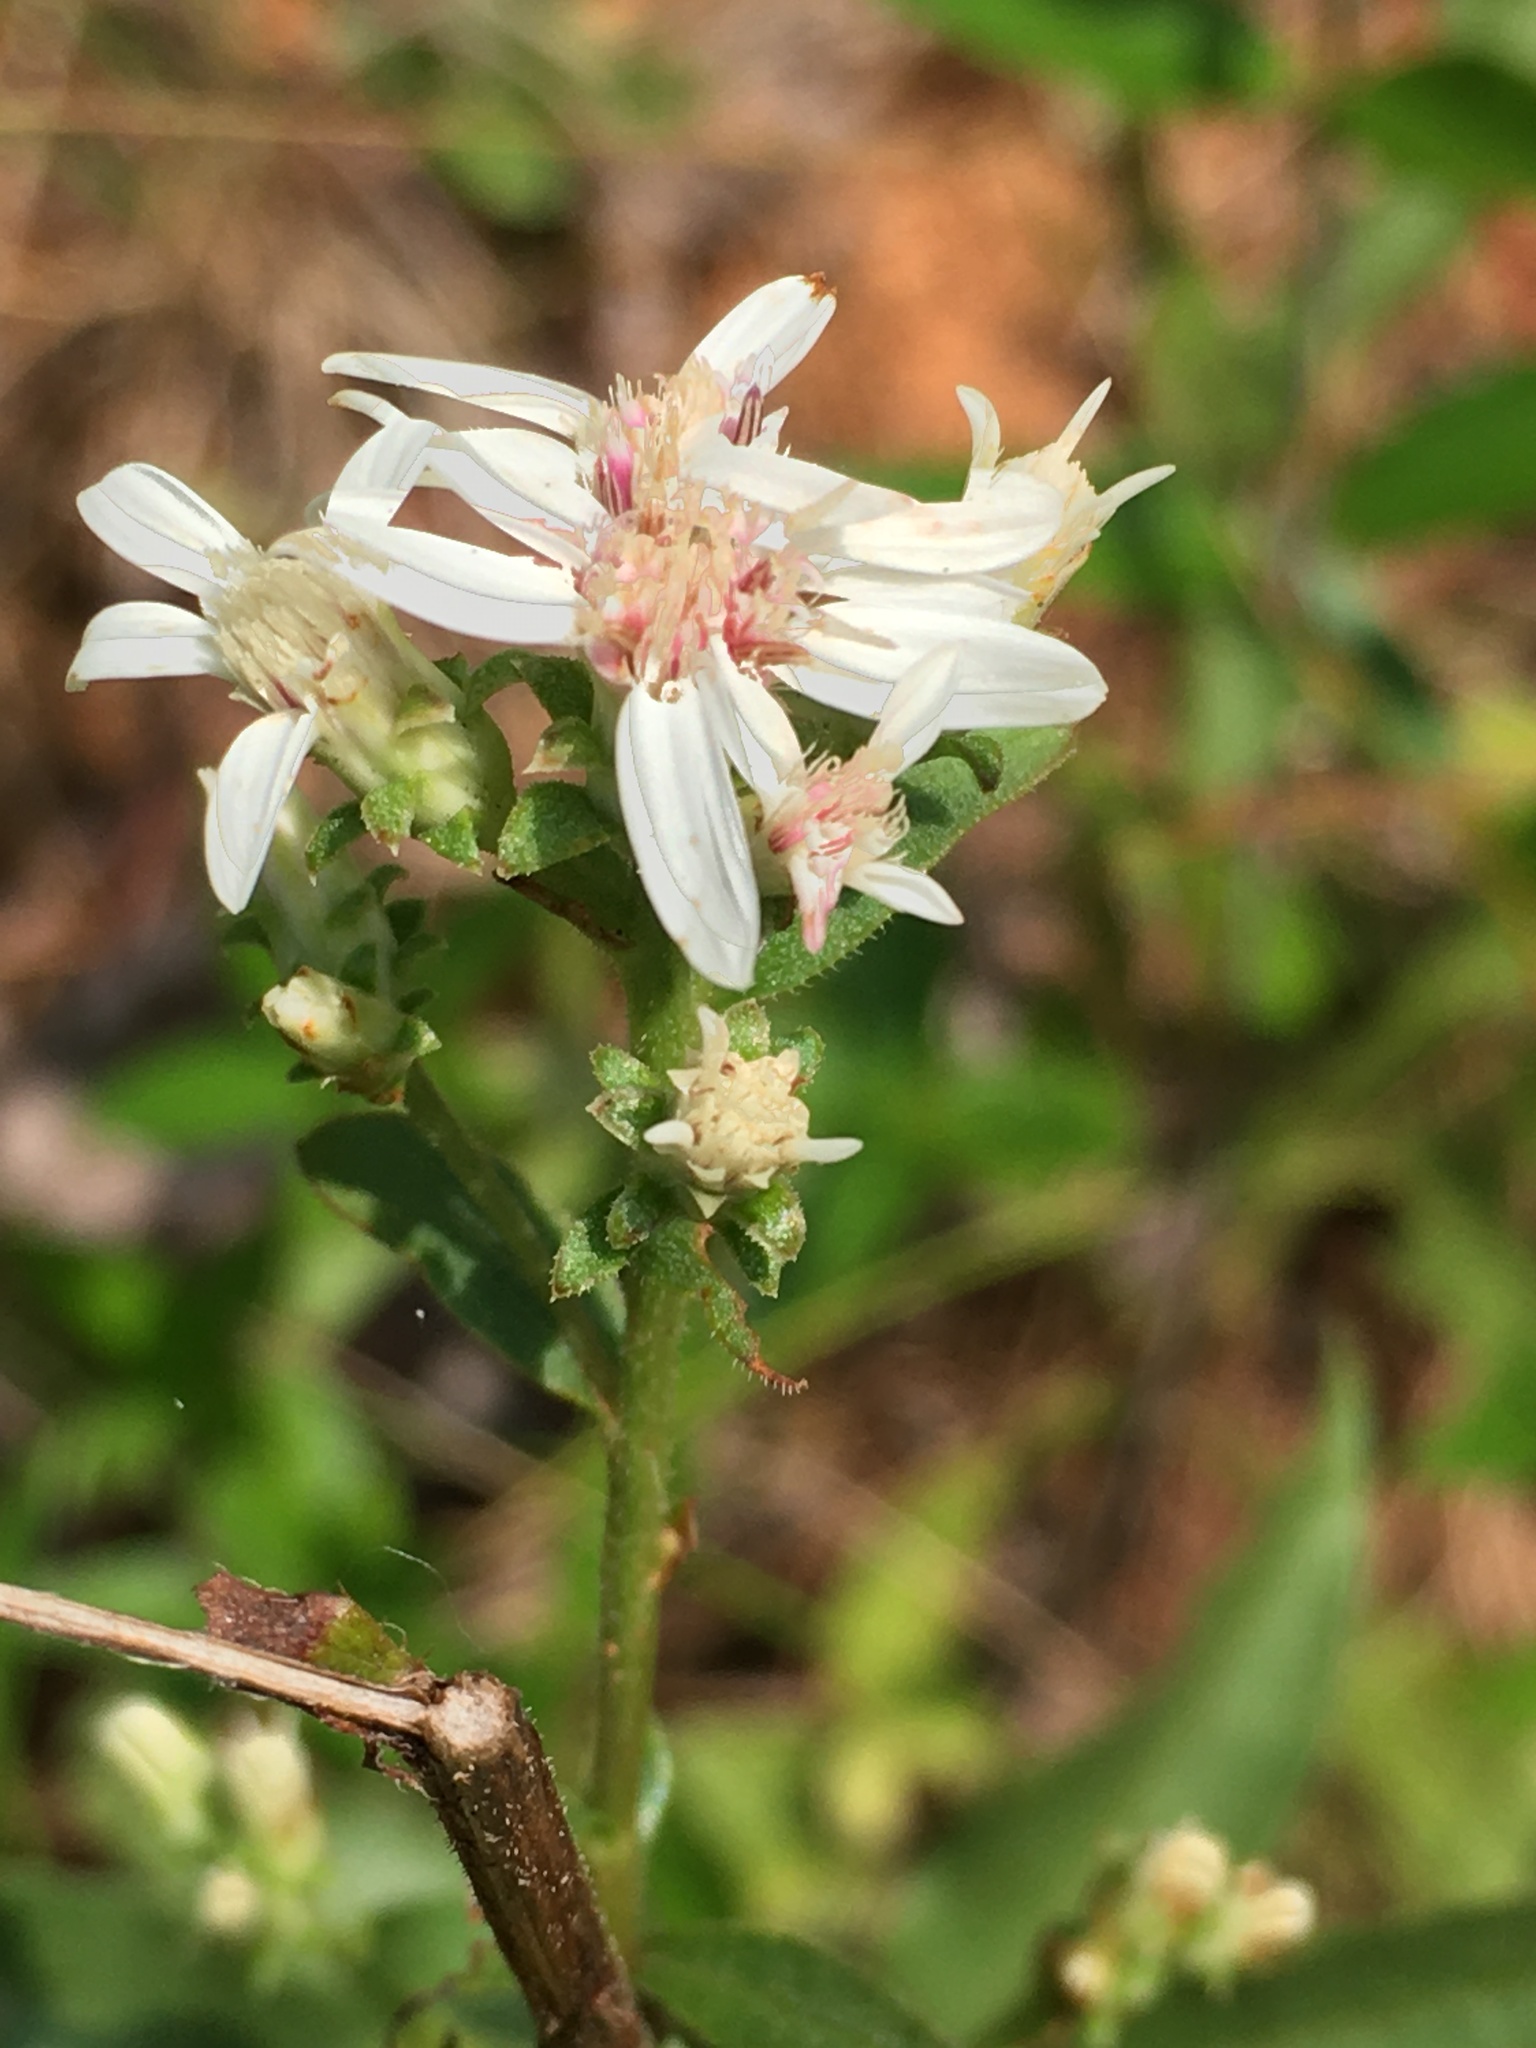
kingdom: Plantae
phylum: Tracheophyta
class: Magnoliopsida
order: Asterales
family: Asteraceae
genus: Sericocarpus
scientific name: Sericocarpus asteroides
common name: Toothed white-top aster
